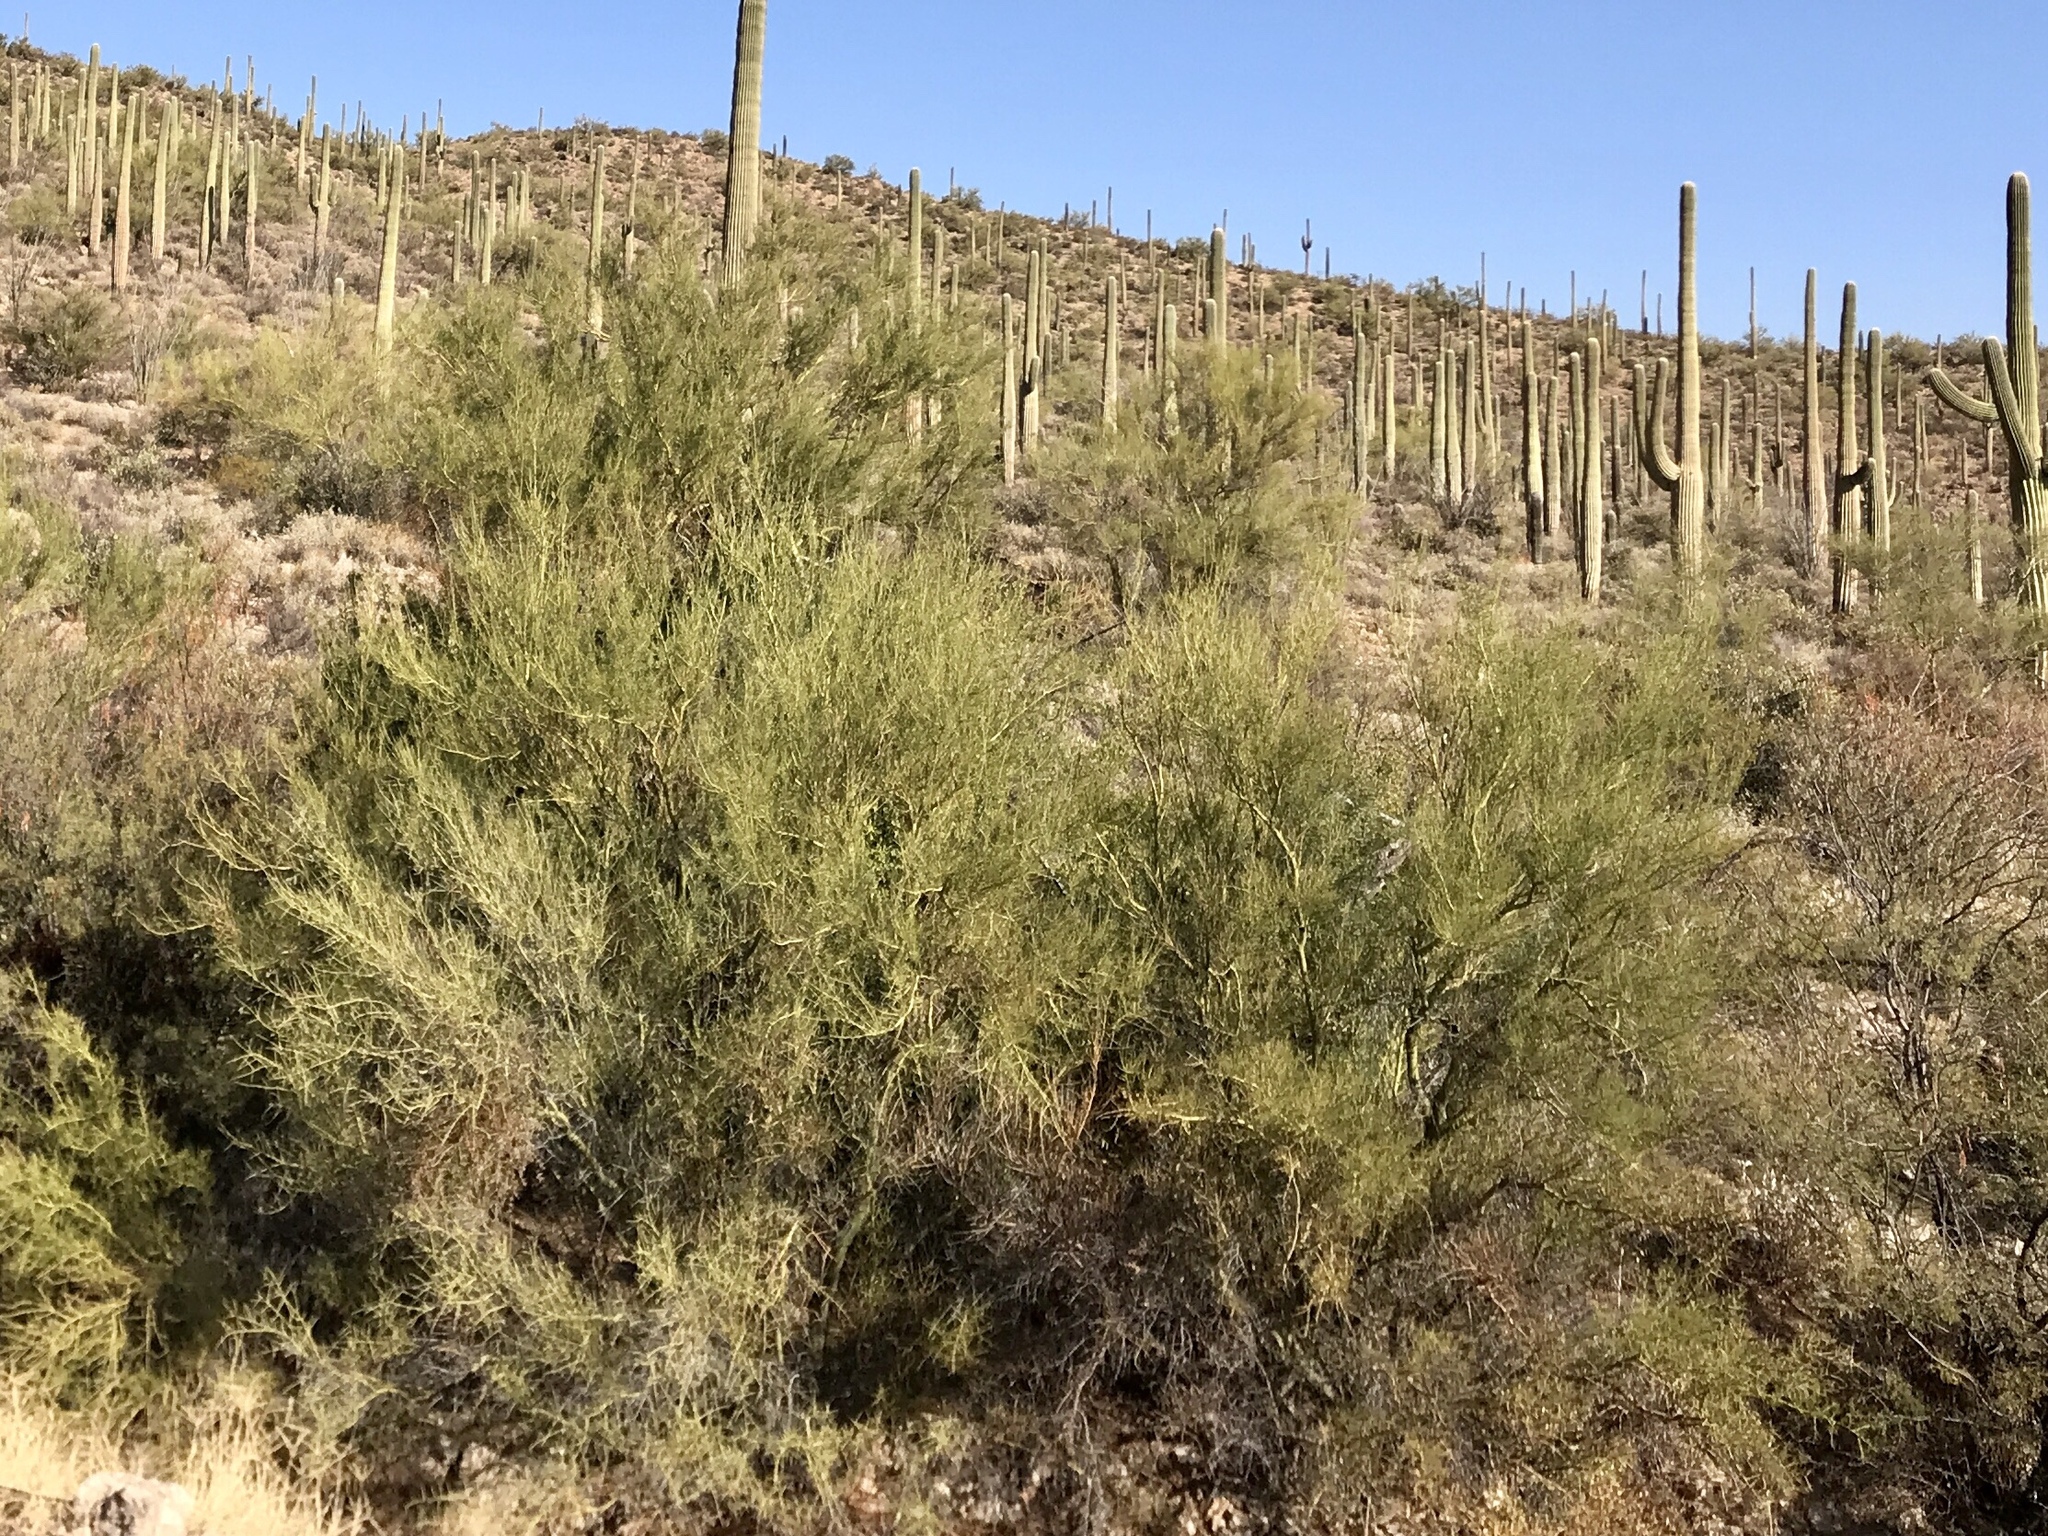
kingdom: Plantae
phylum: Tracheophyta
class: Magnoliopsida
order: Fabales
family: Fabaceae
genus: Parkinsonia
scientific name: Parkinsonia microphylla
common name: Yellow paloverde
